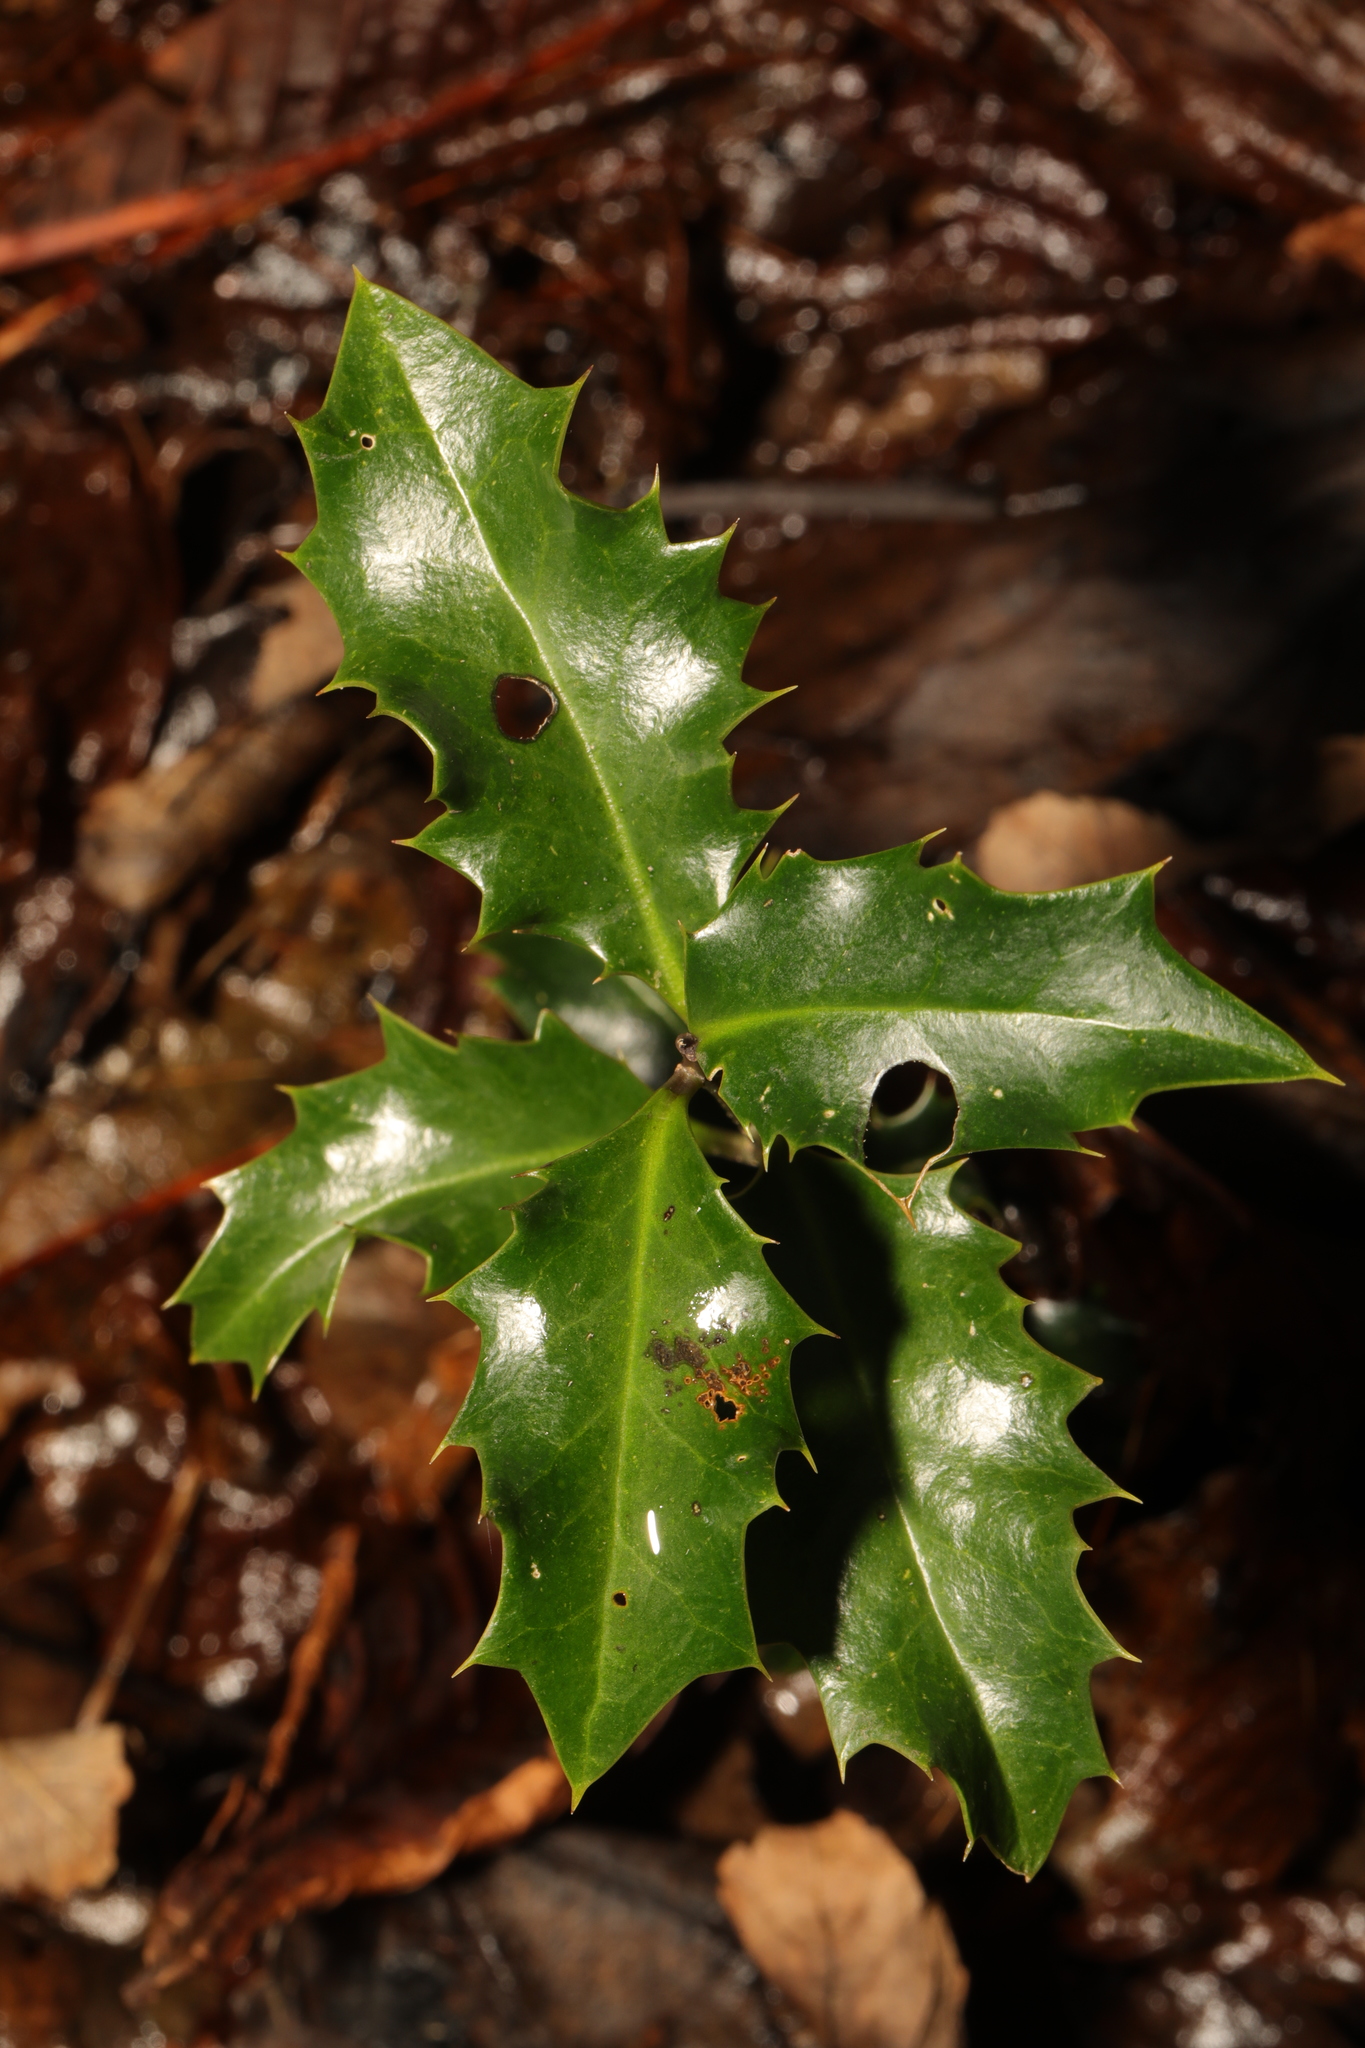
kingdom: Plantae
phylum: Tracheophyta
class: Magnoliopsida
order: Aquifoliales
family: Aquifoliaceae
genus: Ilex
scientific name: Ilex aquifolium
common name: English holly
